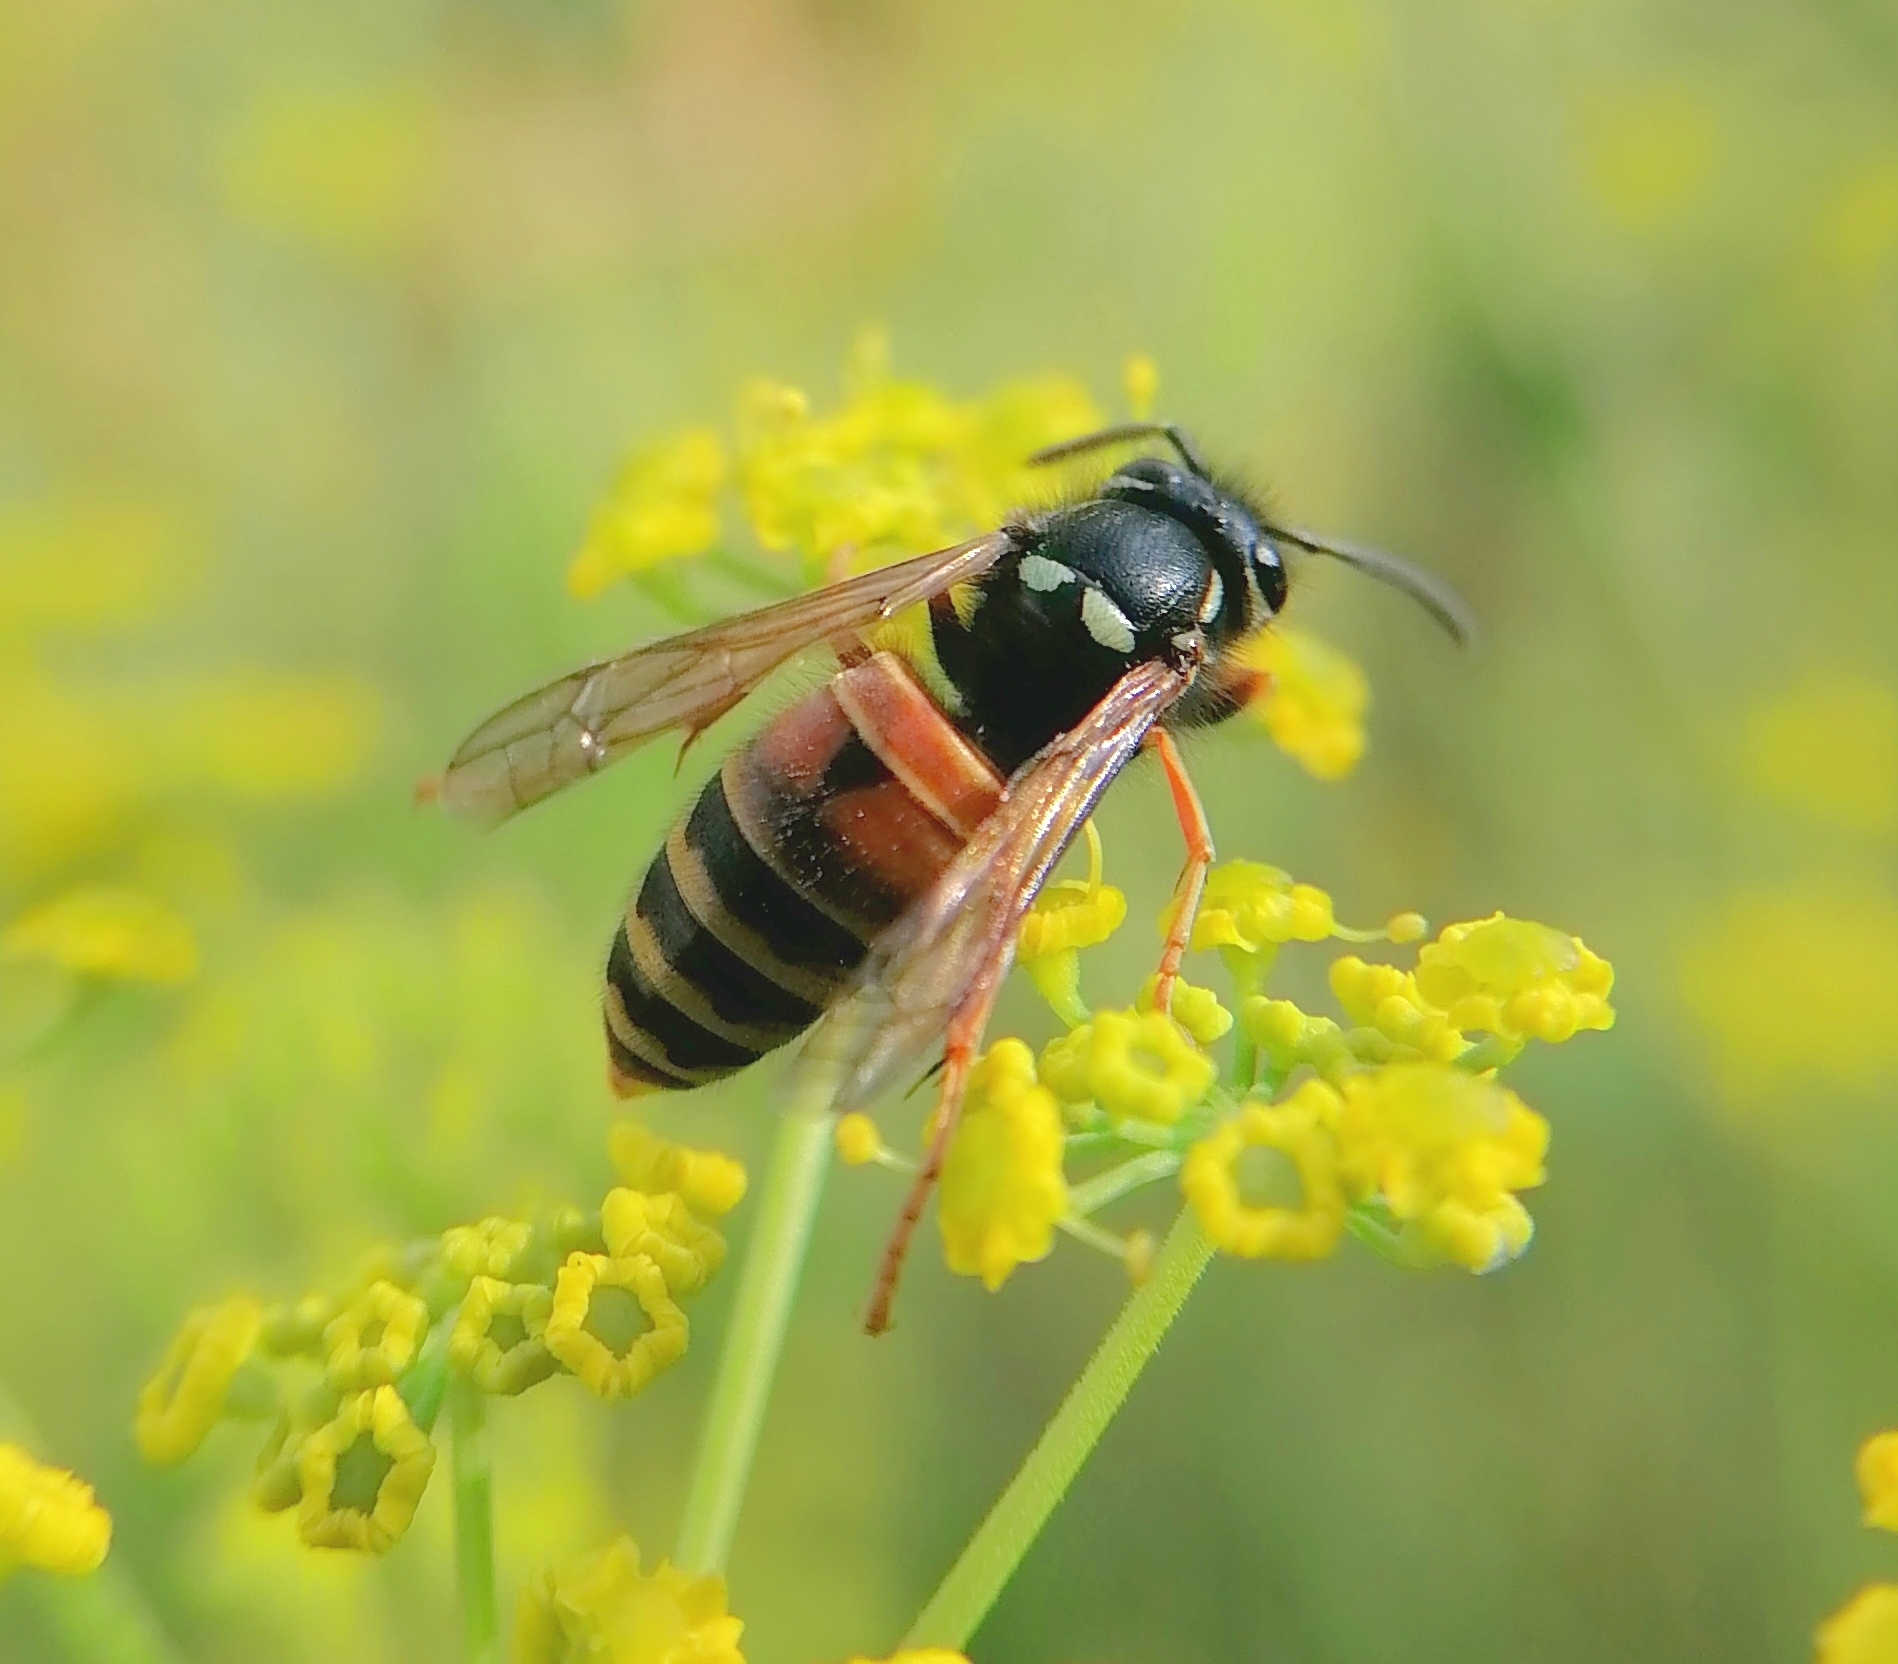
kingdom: Animalia
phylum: Arthropoda
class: Insecta
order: Hymenoptera
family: Vespidae
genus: Vespula
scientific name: Vespula rufa
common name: Red wasp
